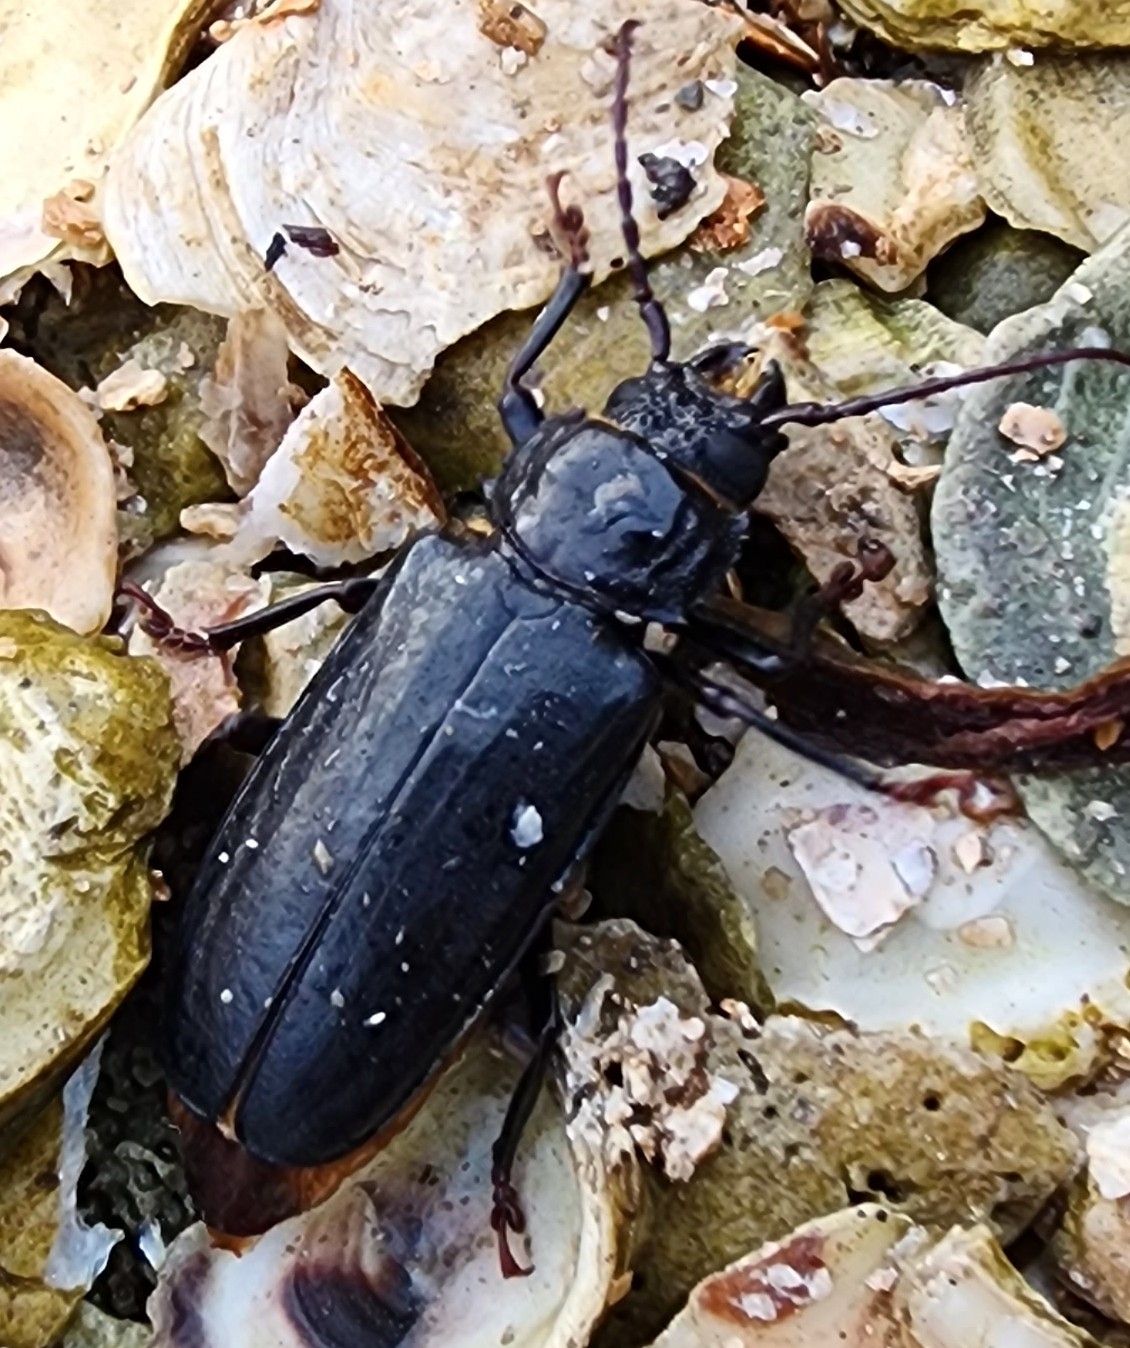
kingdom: Animalia
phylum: Arthropoda
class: Insecta
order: Coleoptera
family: Cerambycidae
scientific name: Cerambycidae
